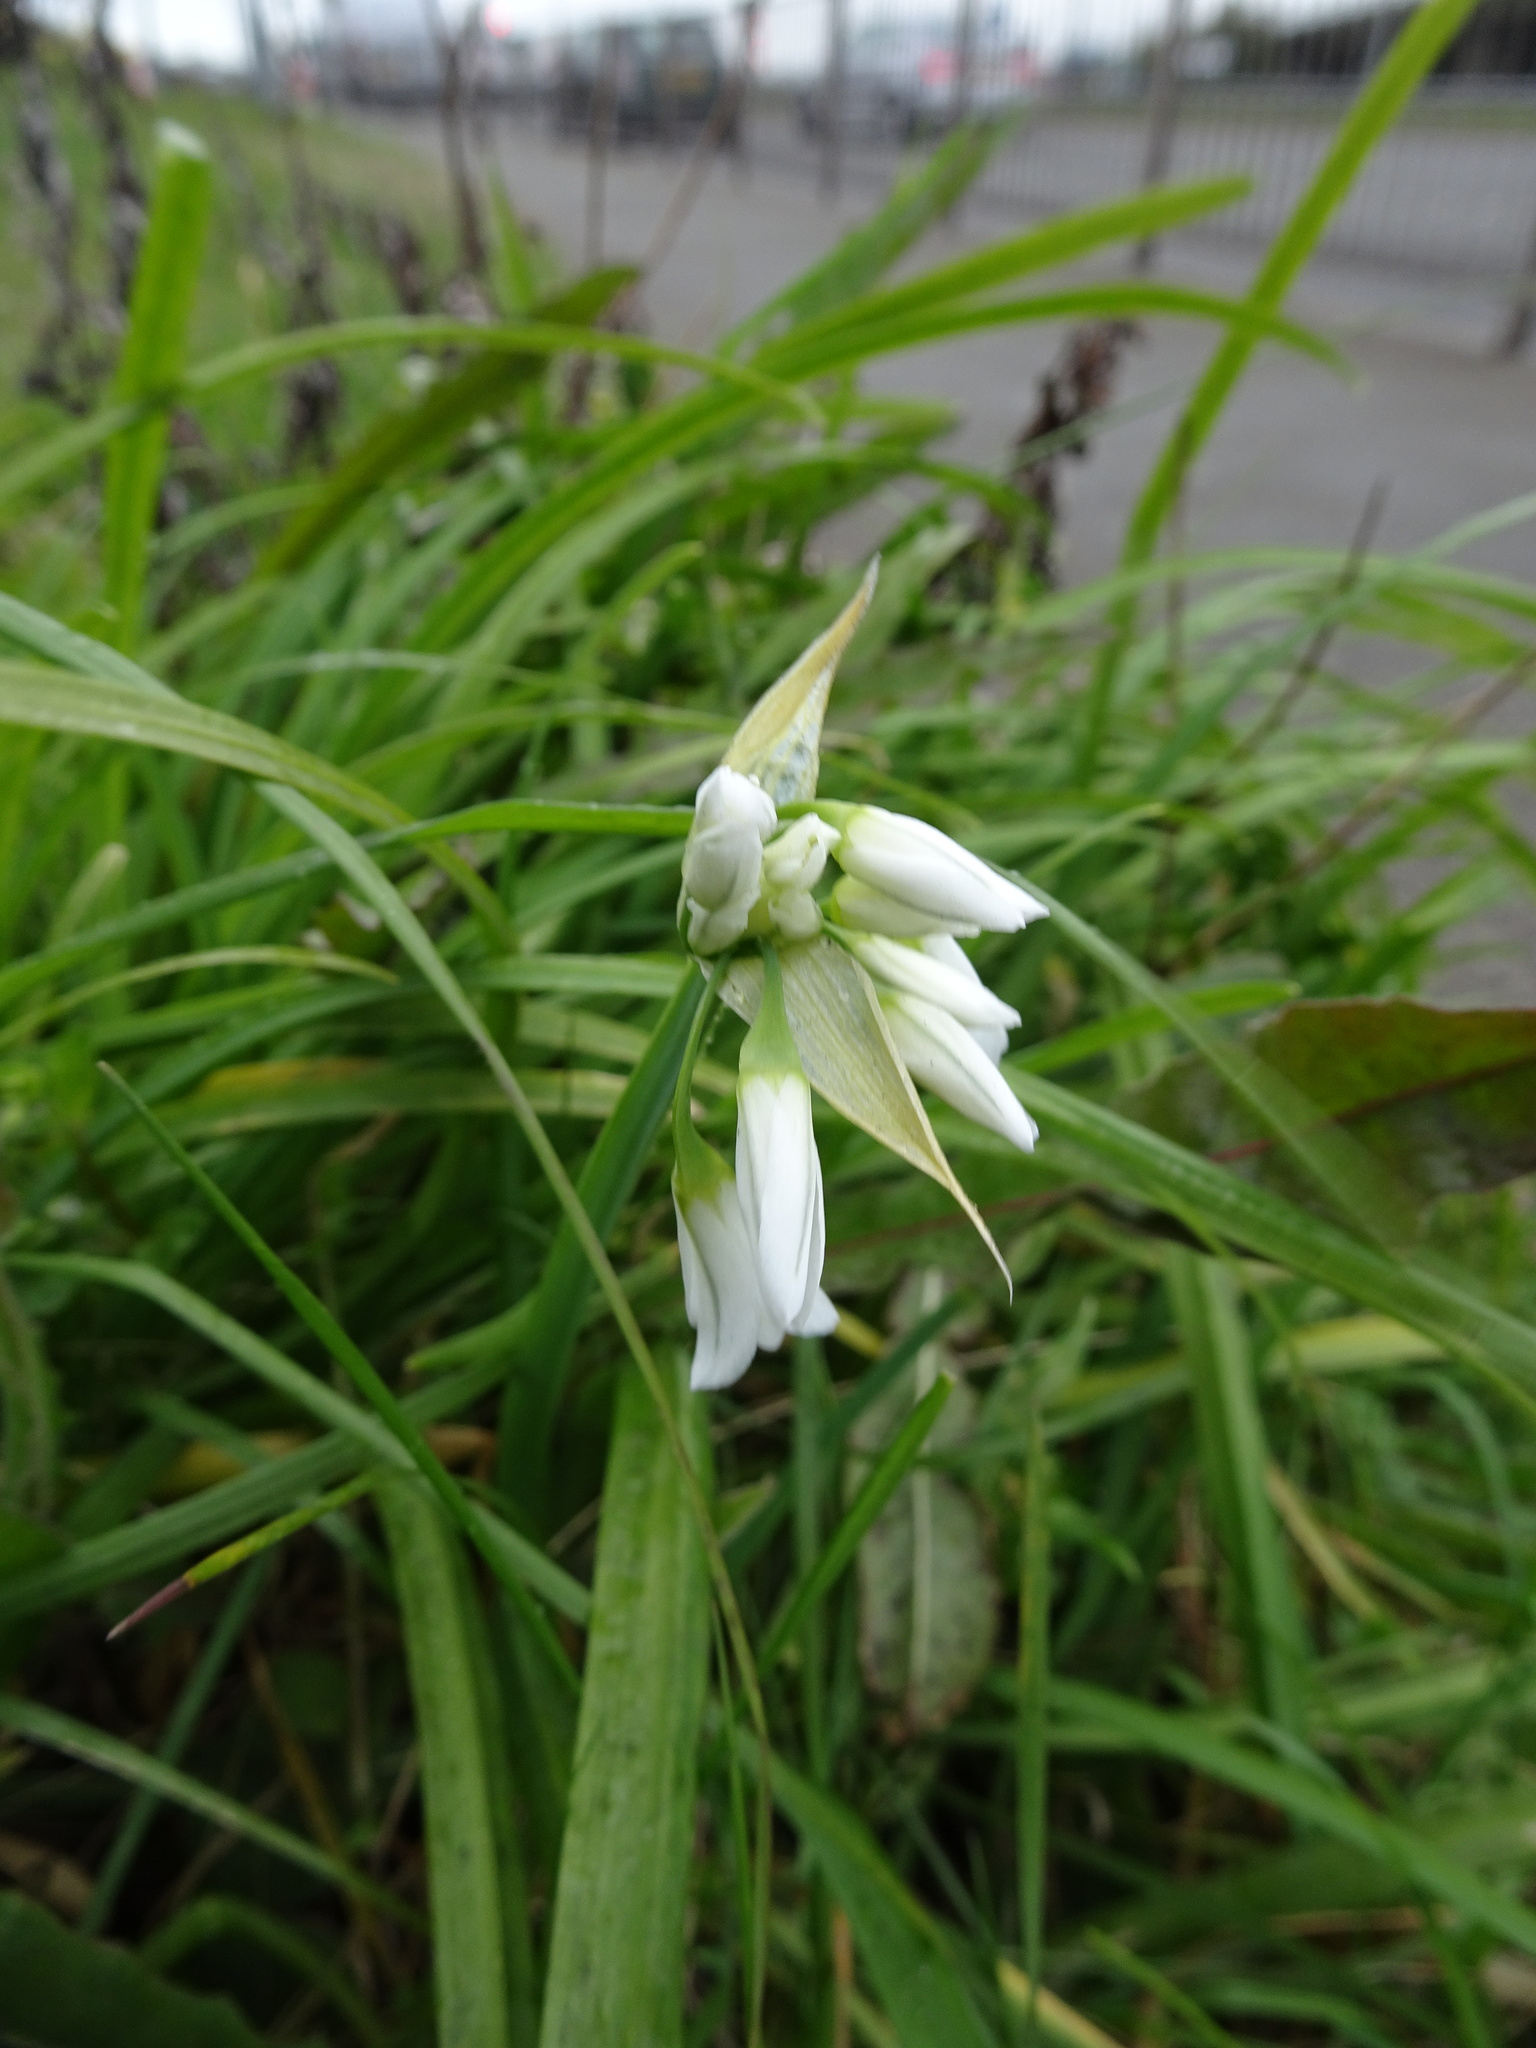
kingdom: Plantae
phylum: Tracheophyta
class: Liliopsida
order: Asparagales
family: Amaryllidaceae
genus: Allium
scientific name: Allium triquetrum
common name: Three-cornered garlic
